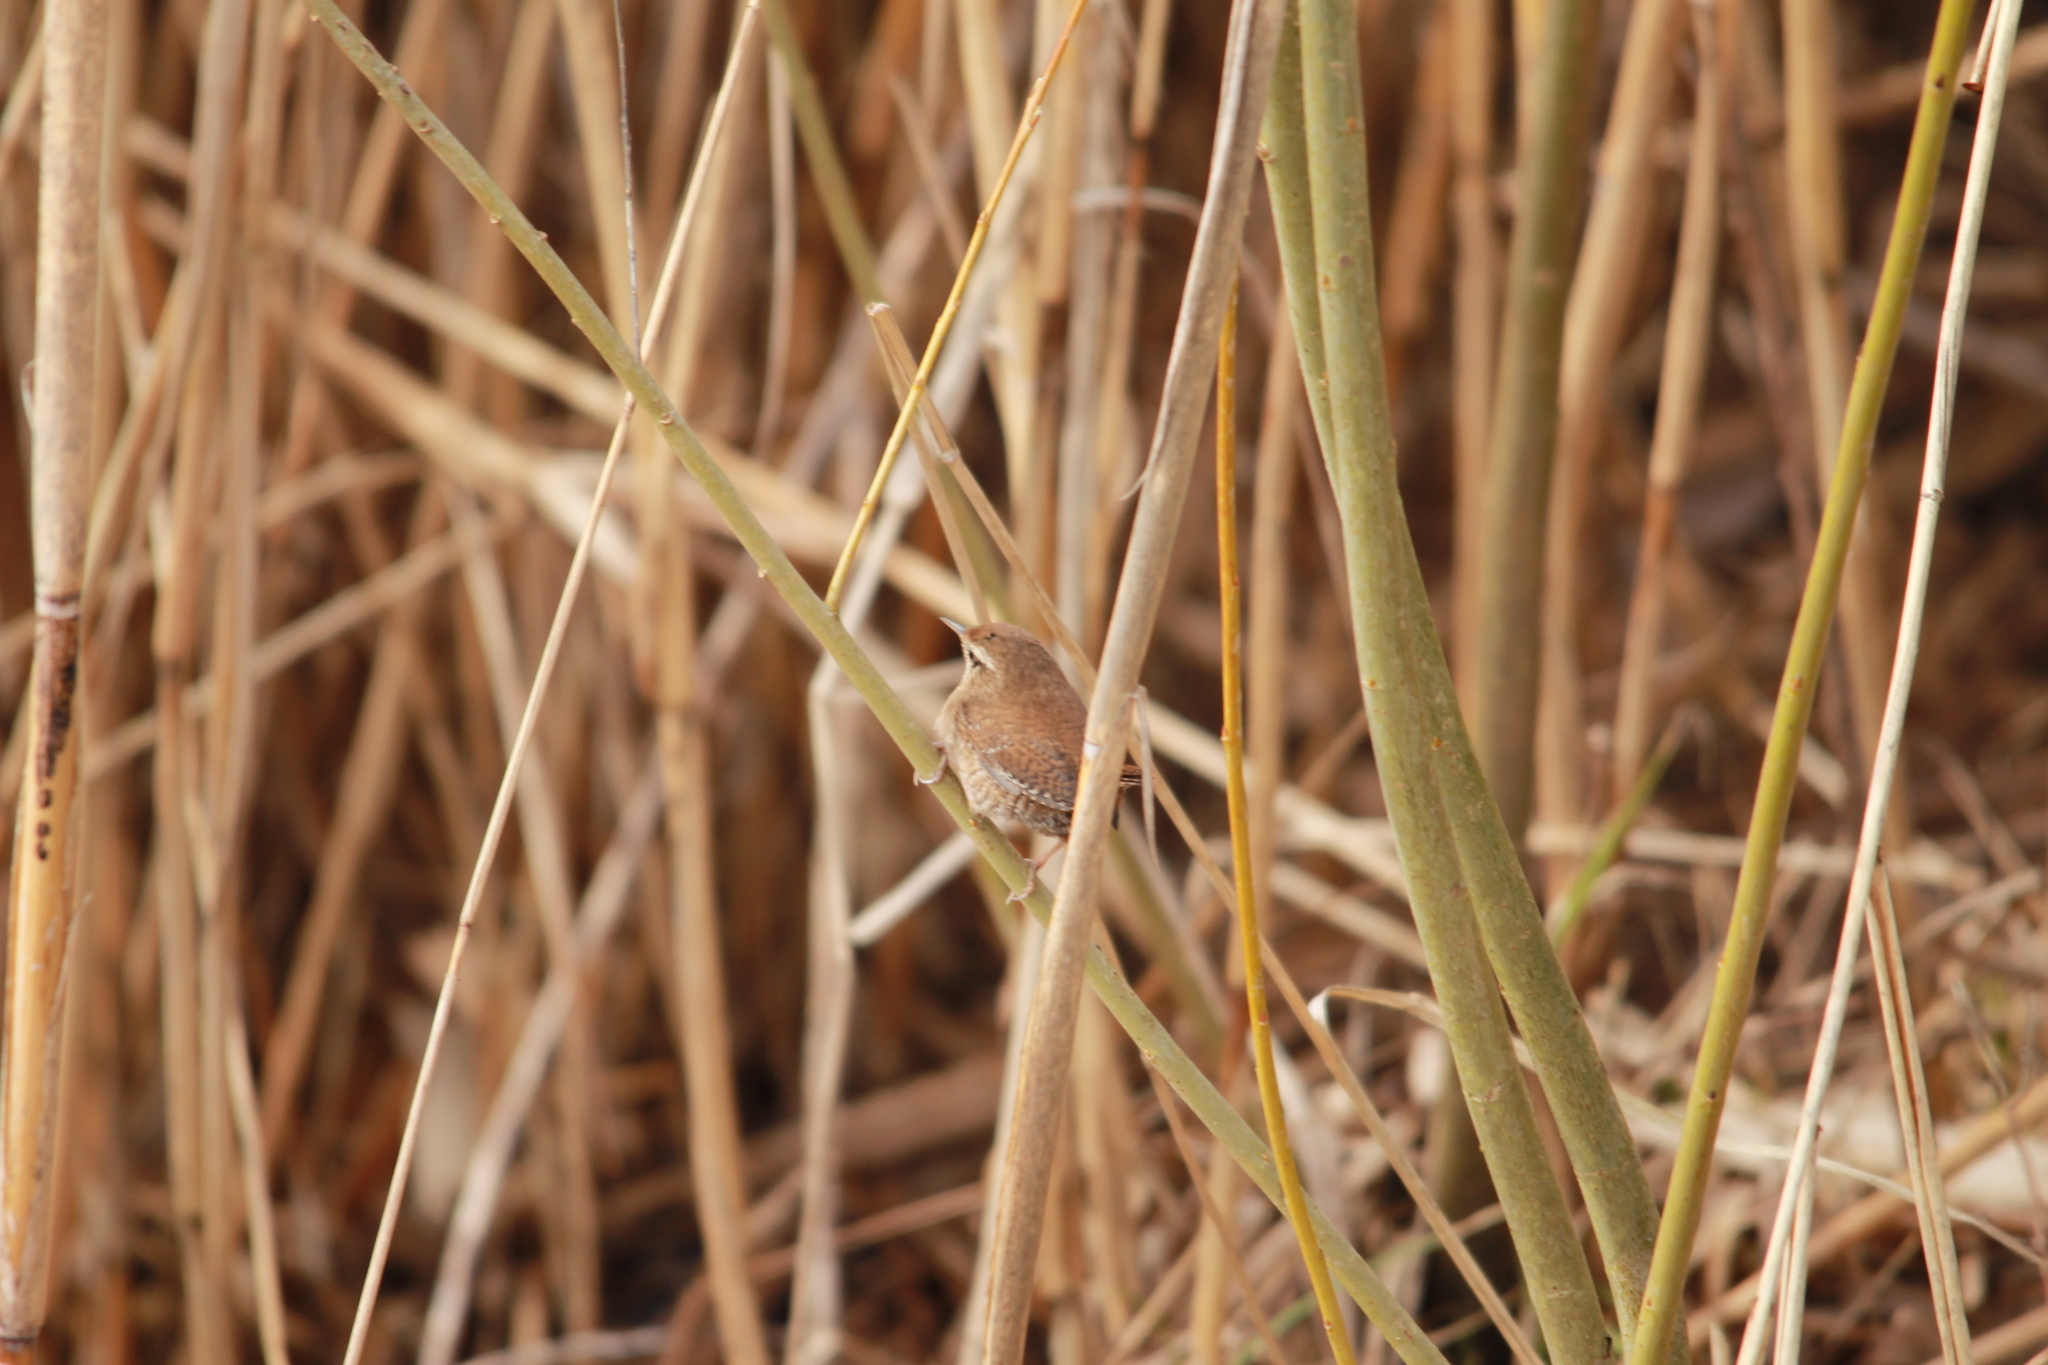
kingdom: Animalia
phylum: Chordata
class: Aves
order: Passeriformes
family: Troglodytidae
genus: Troglodytes
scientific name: Troglodytes troglodytes
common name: Eurasian wren
